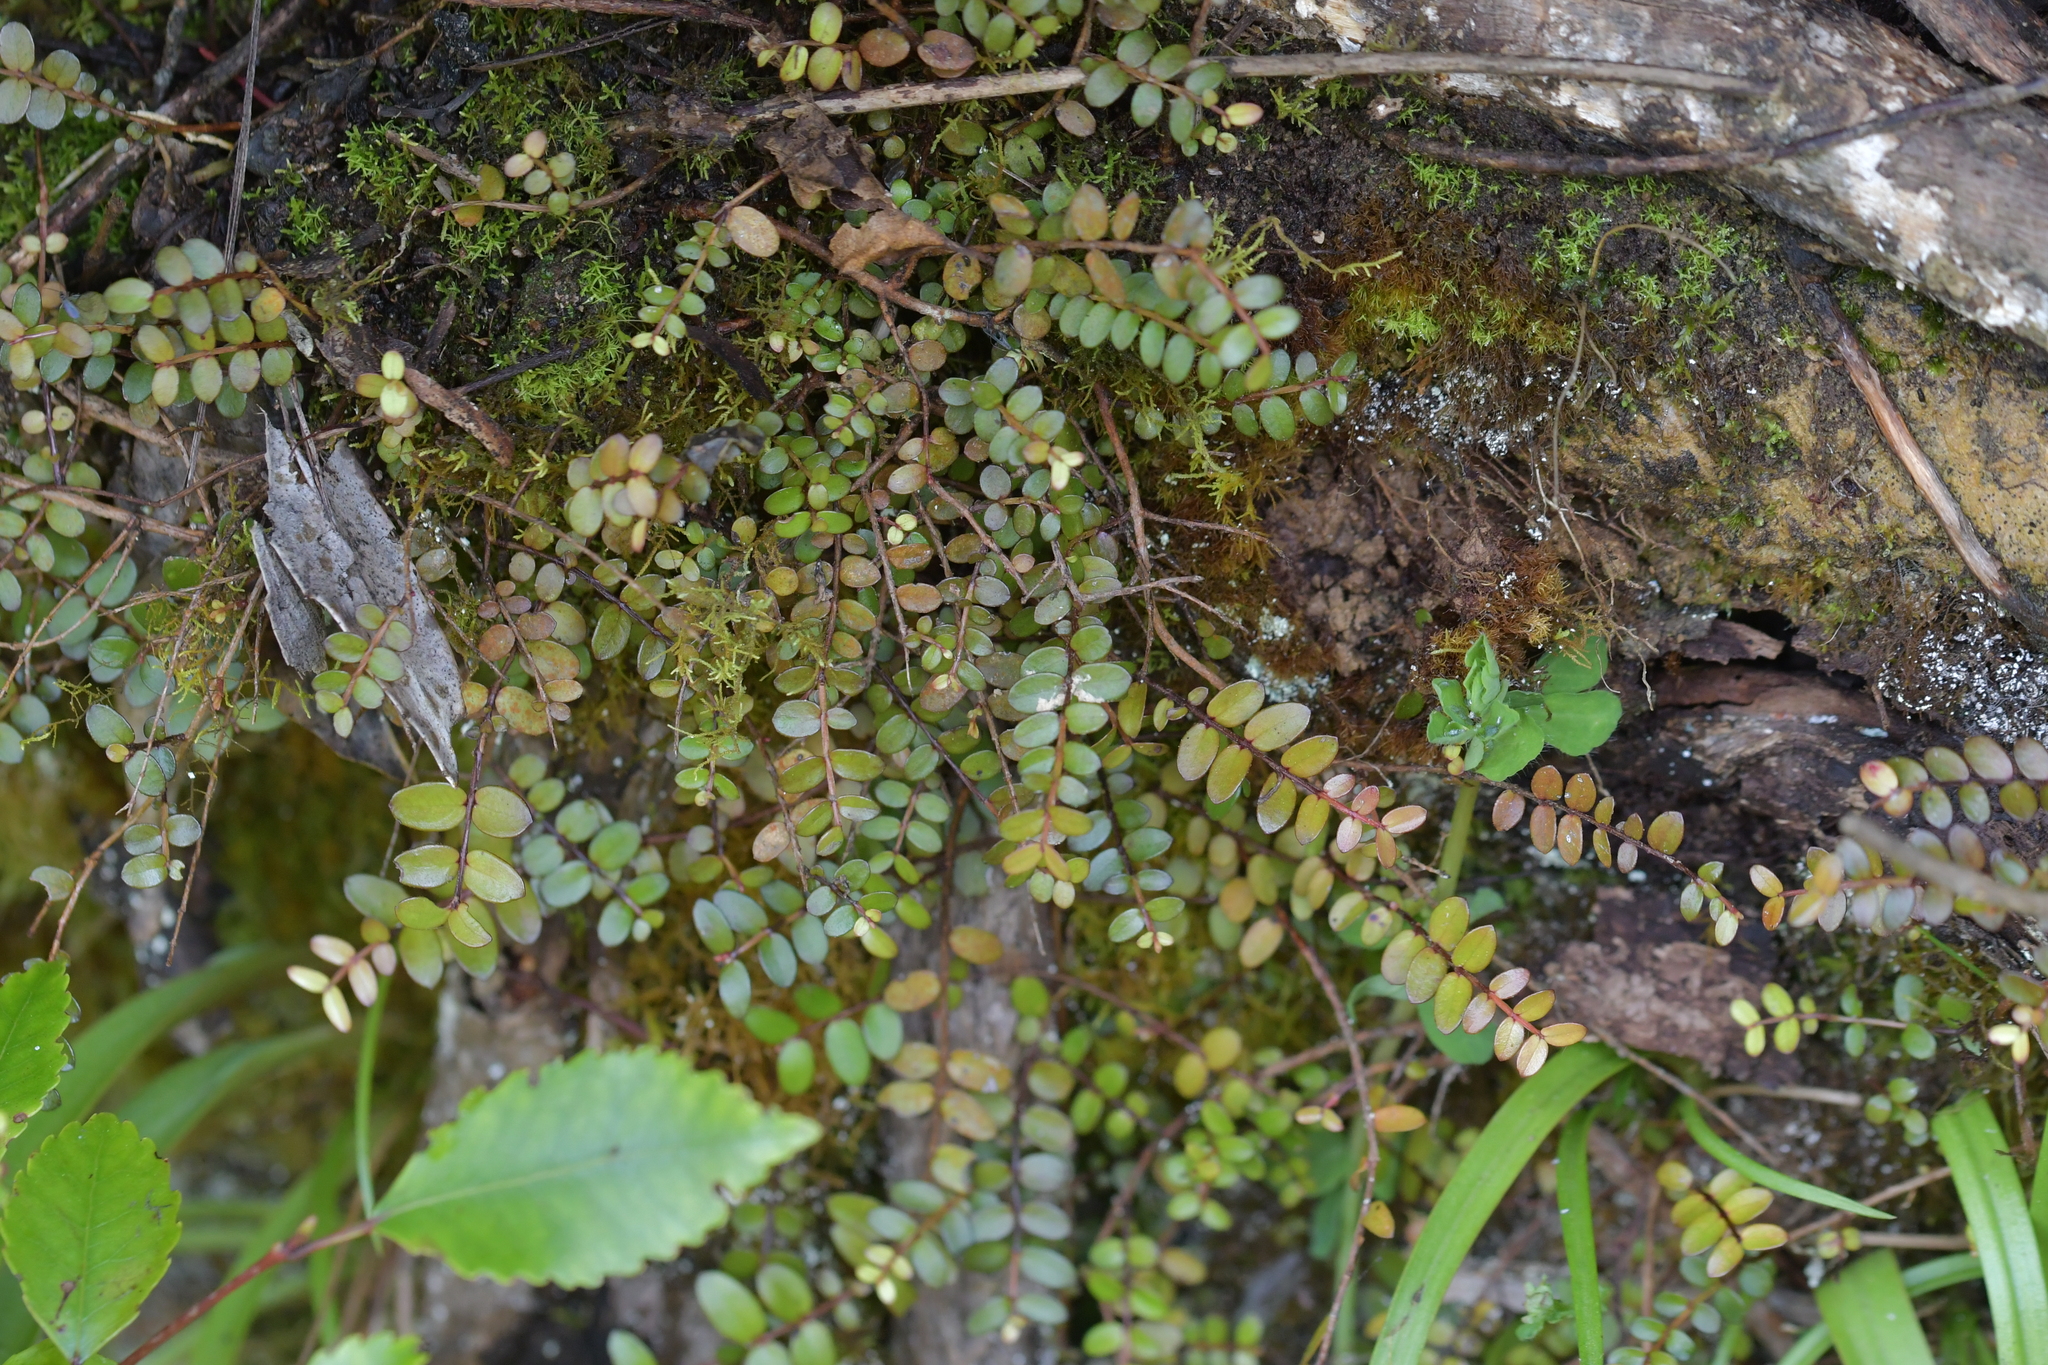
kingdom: Plantae
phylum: Tracheophyta
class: Magnoliopsida
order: Myrtales
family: Myrtaceae
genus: Metrosideros
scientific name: Metrosideros diffusa
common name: Small ratavine
